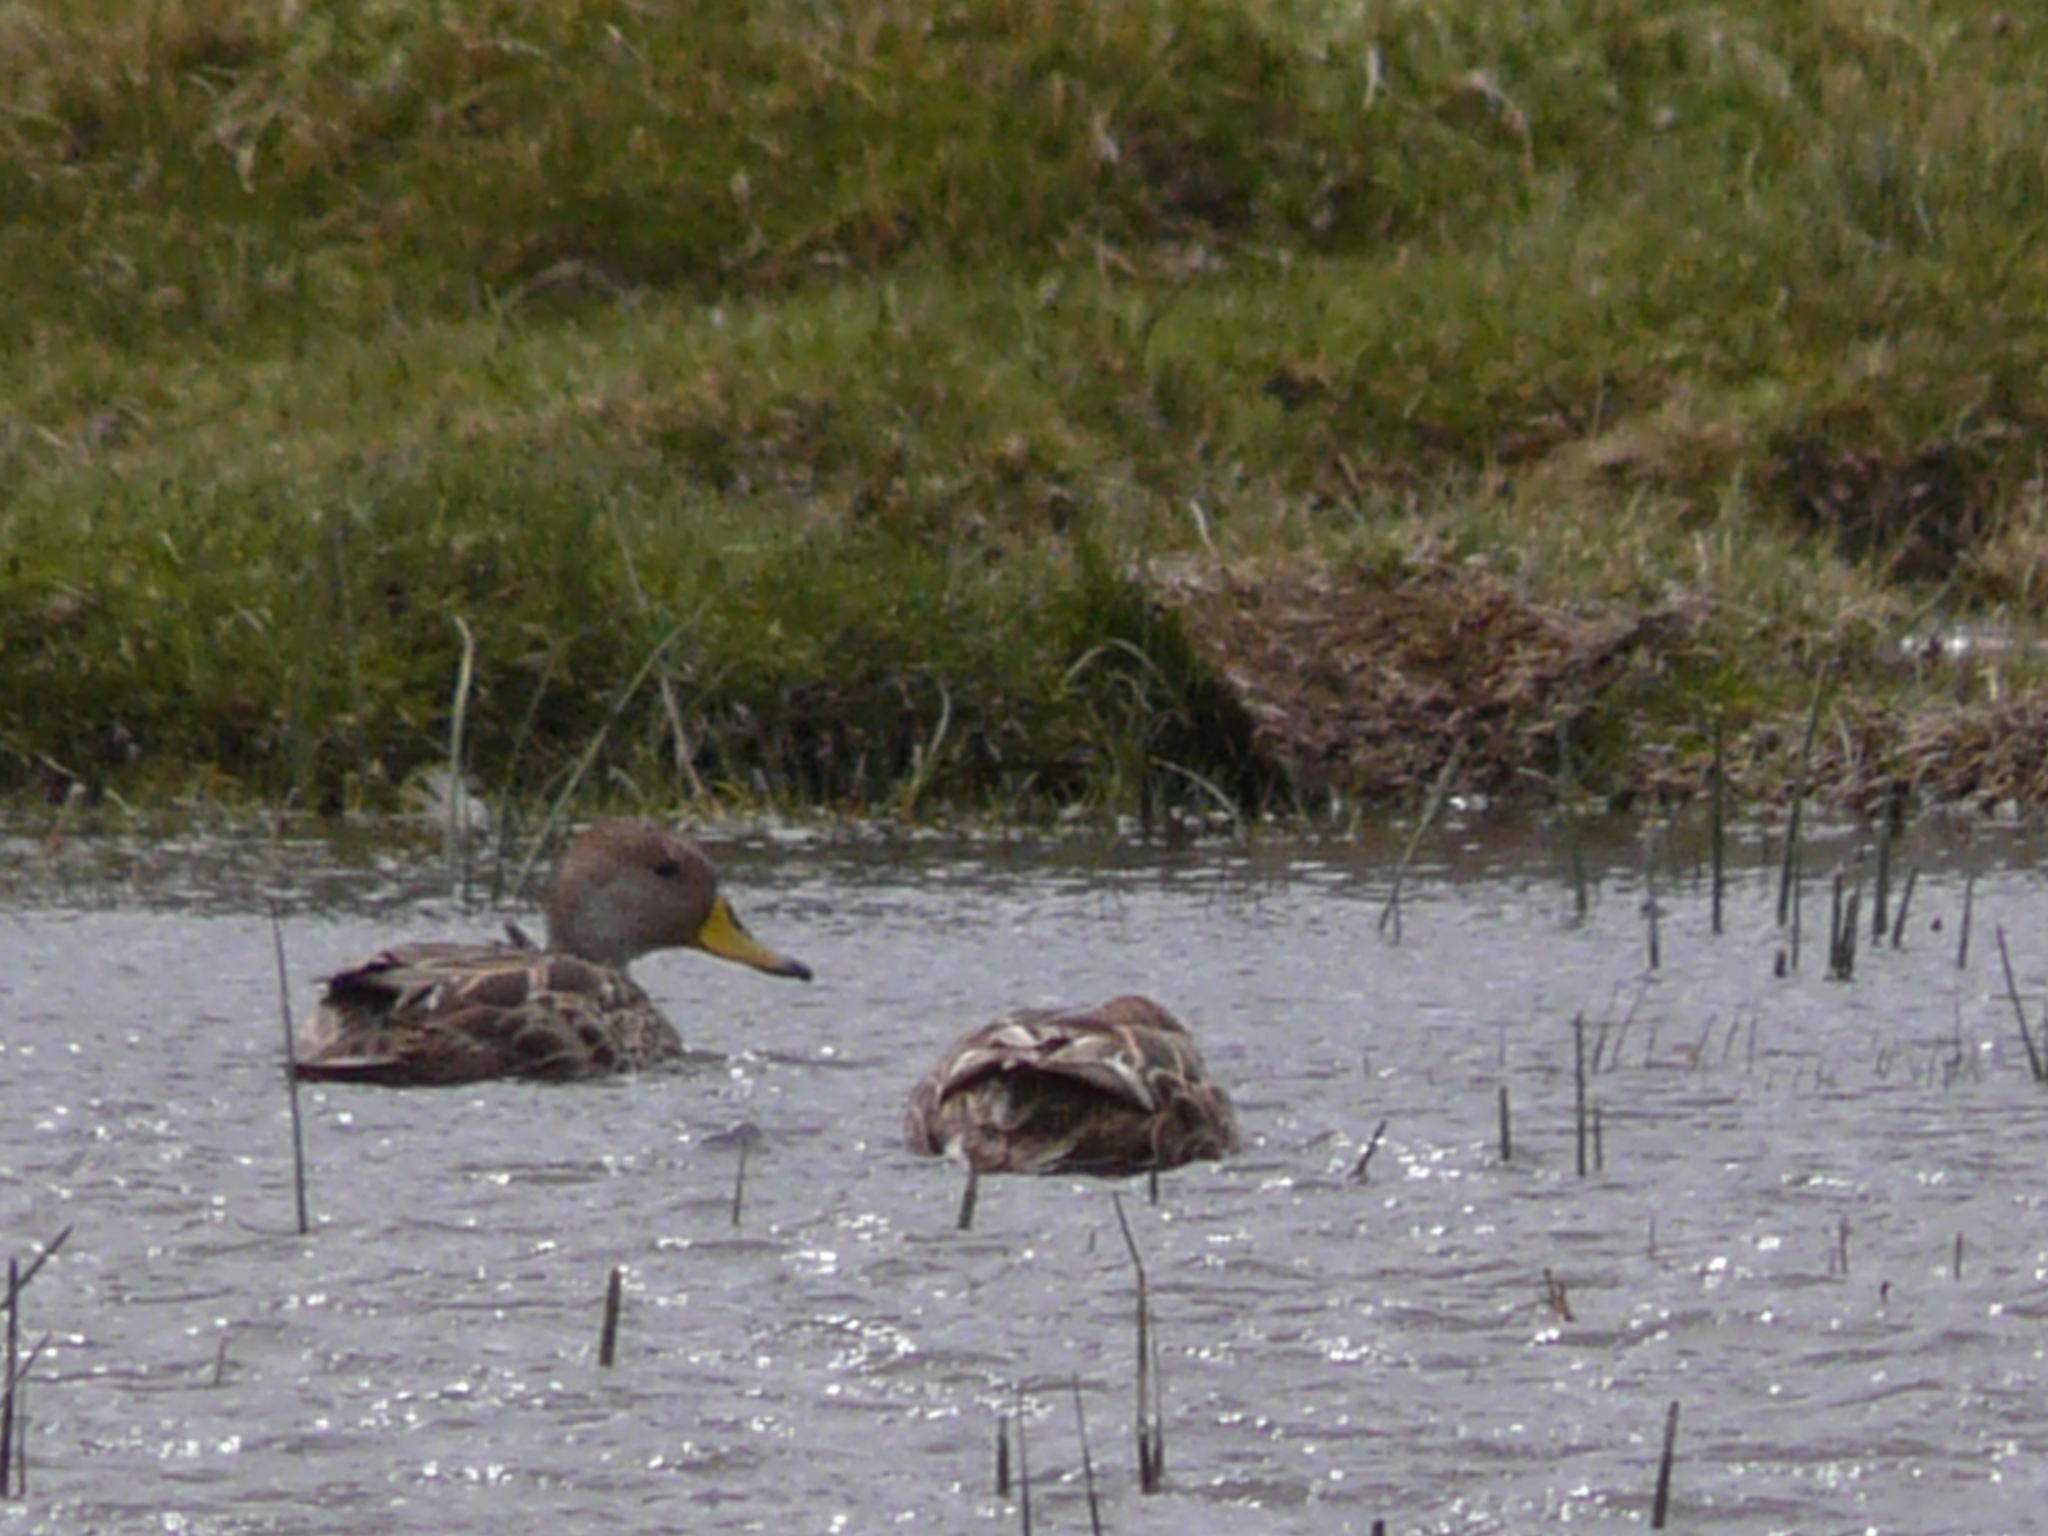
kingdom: Animalia
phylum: Chordata
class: Aves
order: Anseriformes
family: Anatidae
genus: Anas
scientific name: Anas georgica
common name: Yellow-billed pintail
